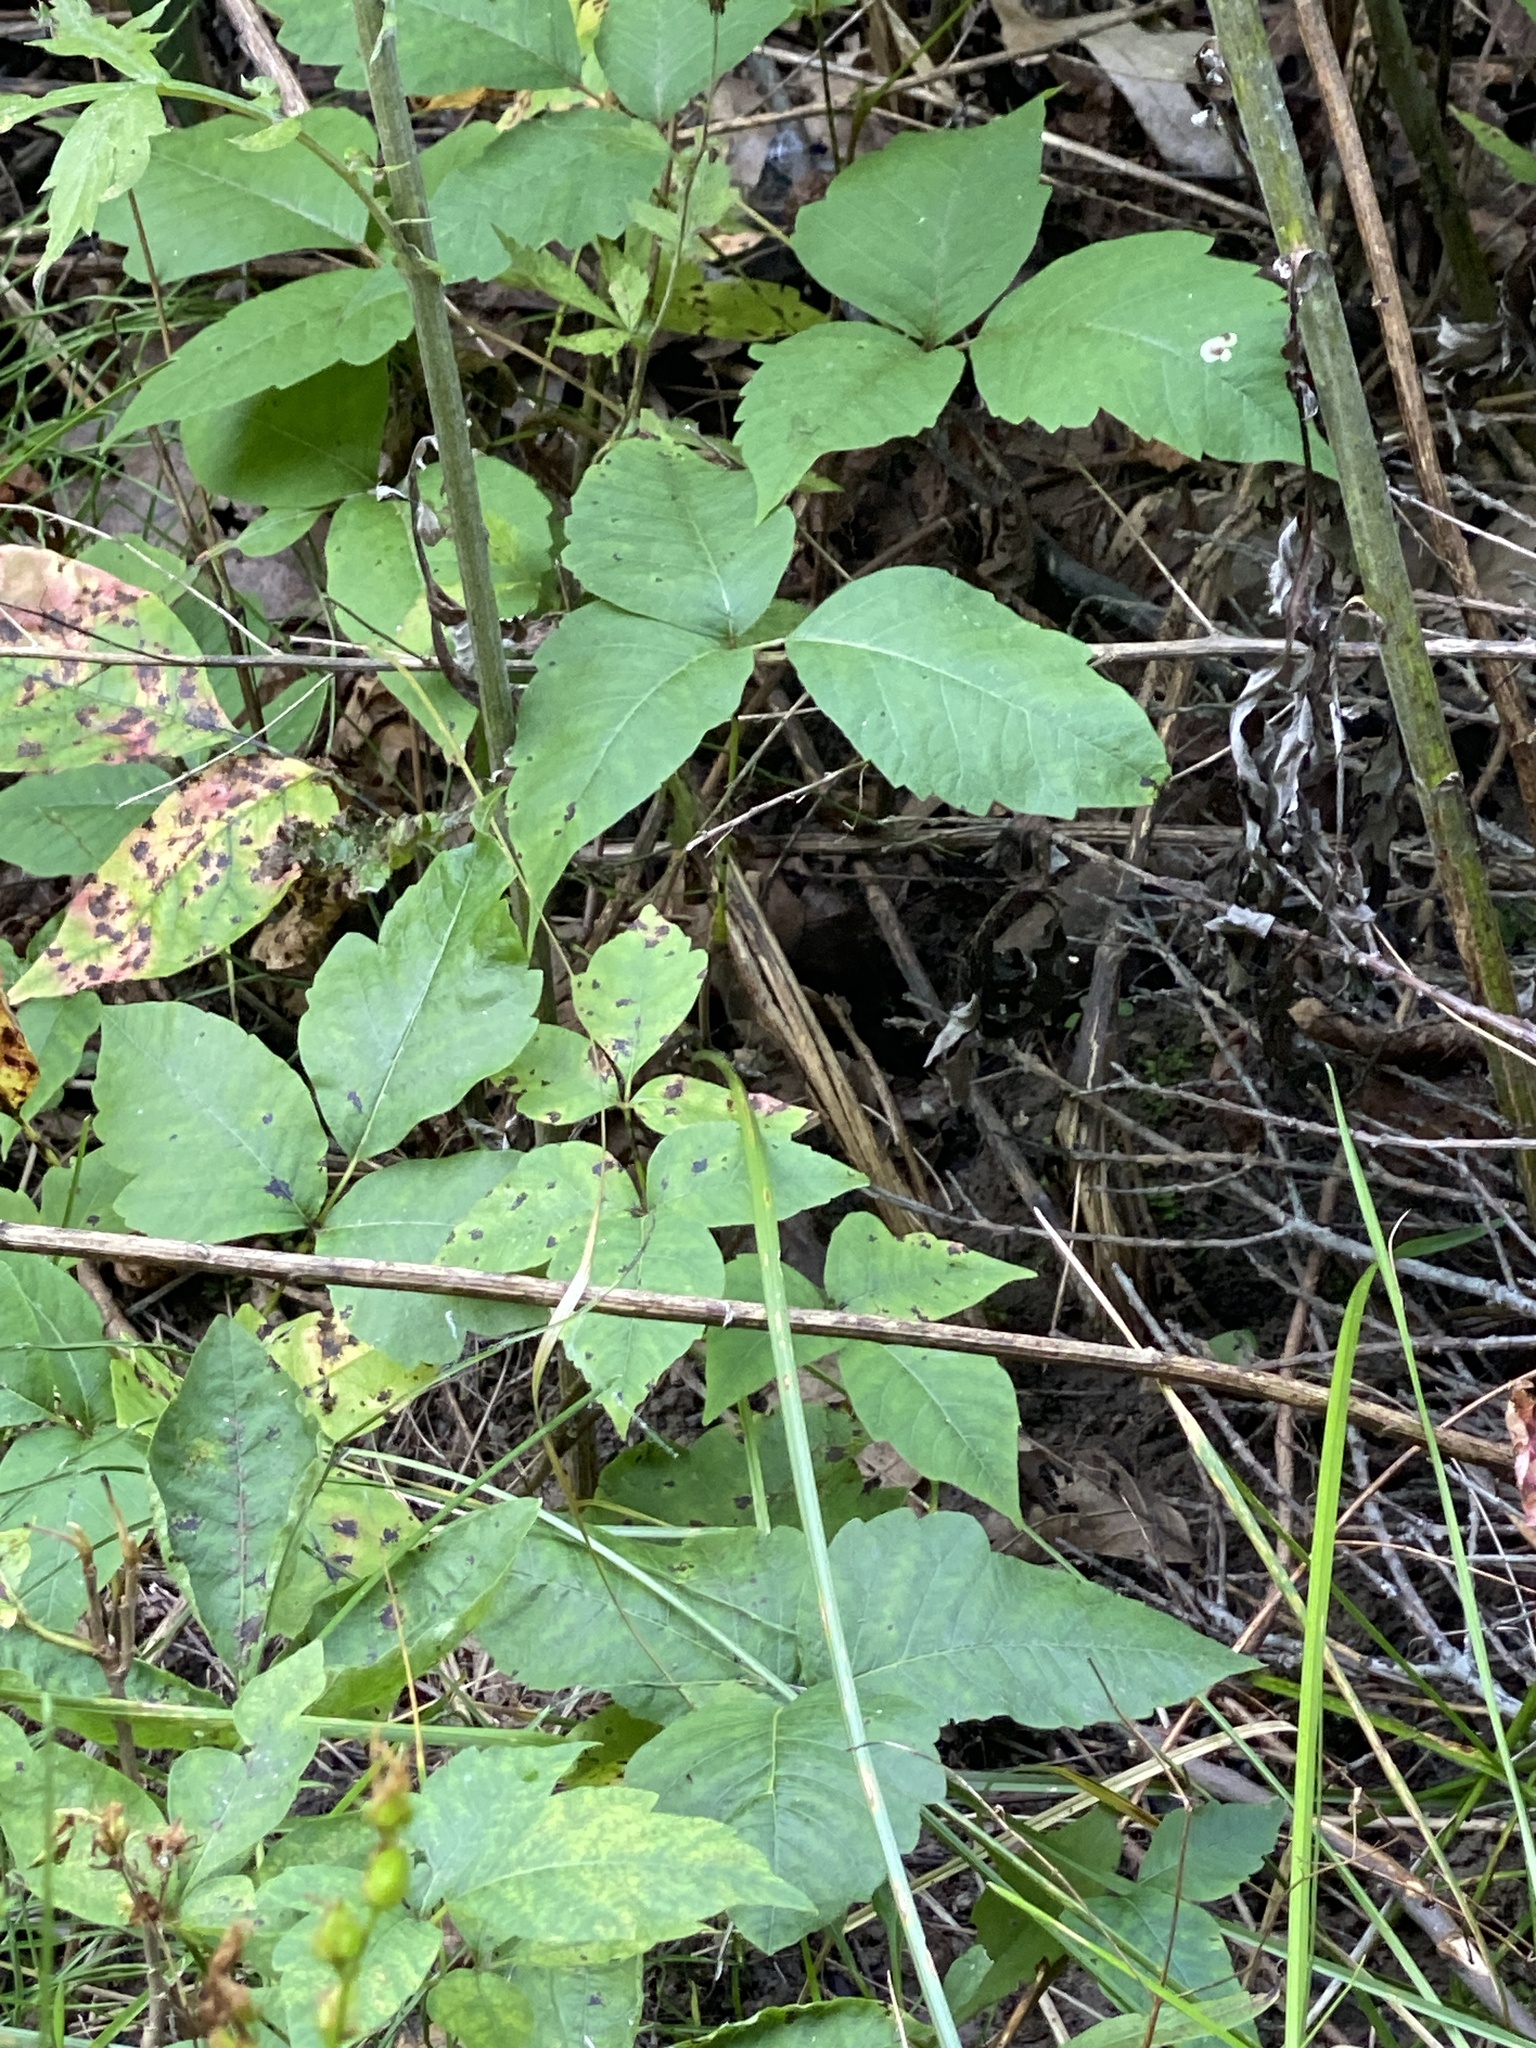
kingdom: Plantae
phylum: Tracheophyta
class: Magnoliopsida
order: Sapindales
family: Anacardiaceae
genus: Toxicodendron
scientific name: Toxicodendron radicans
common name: Poison ivy
